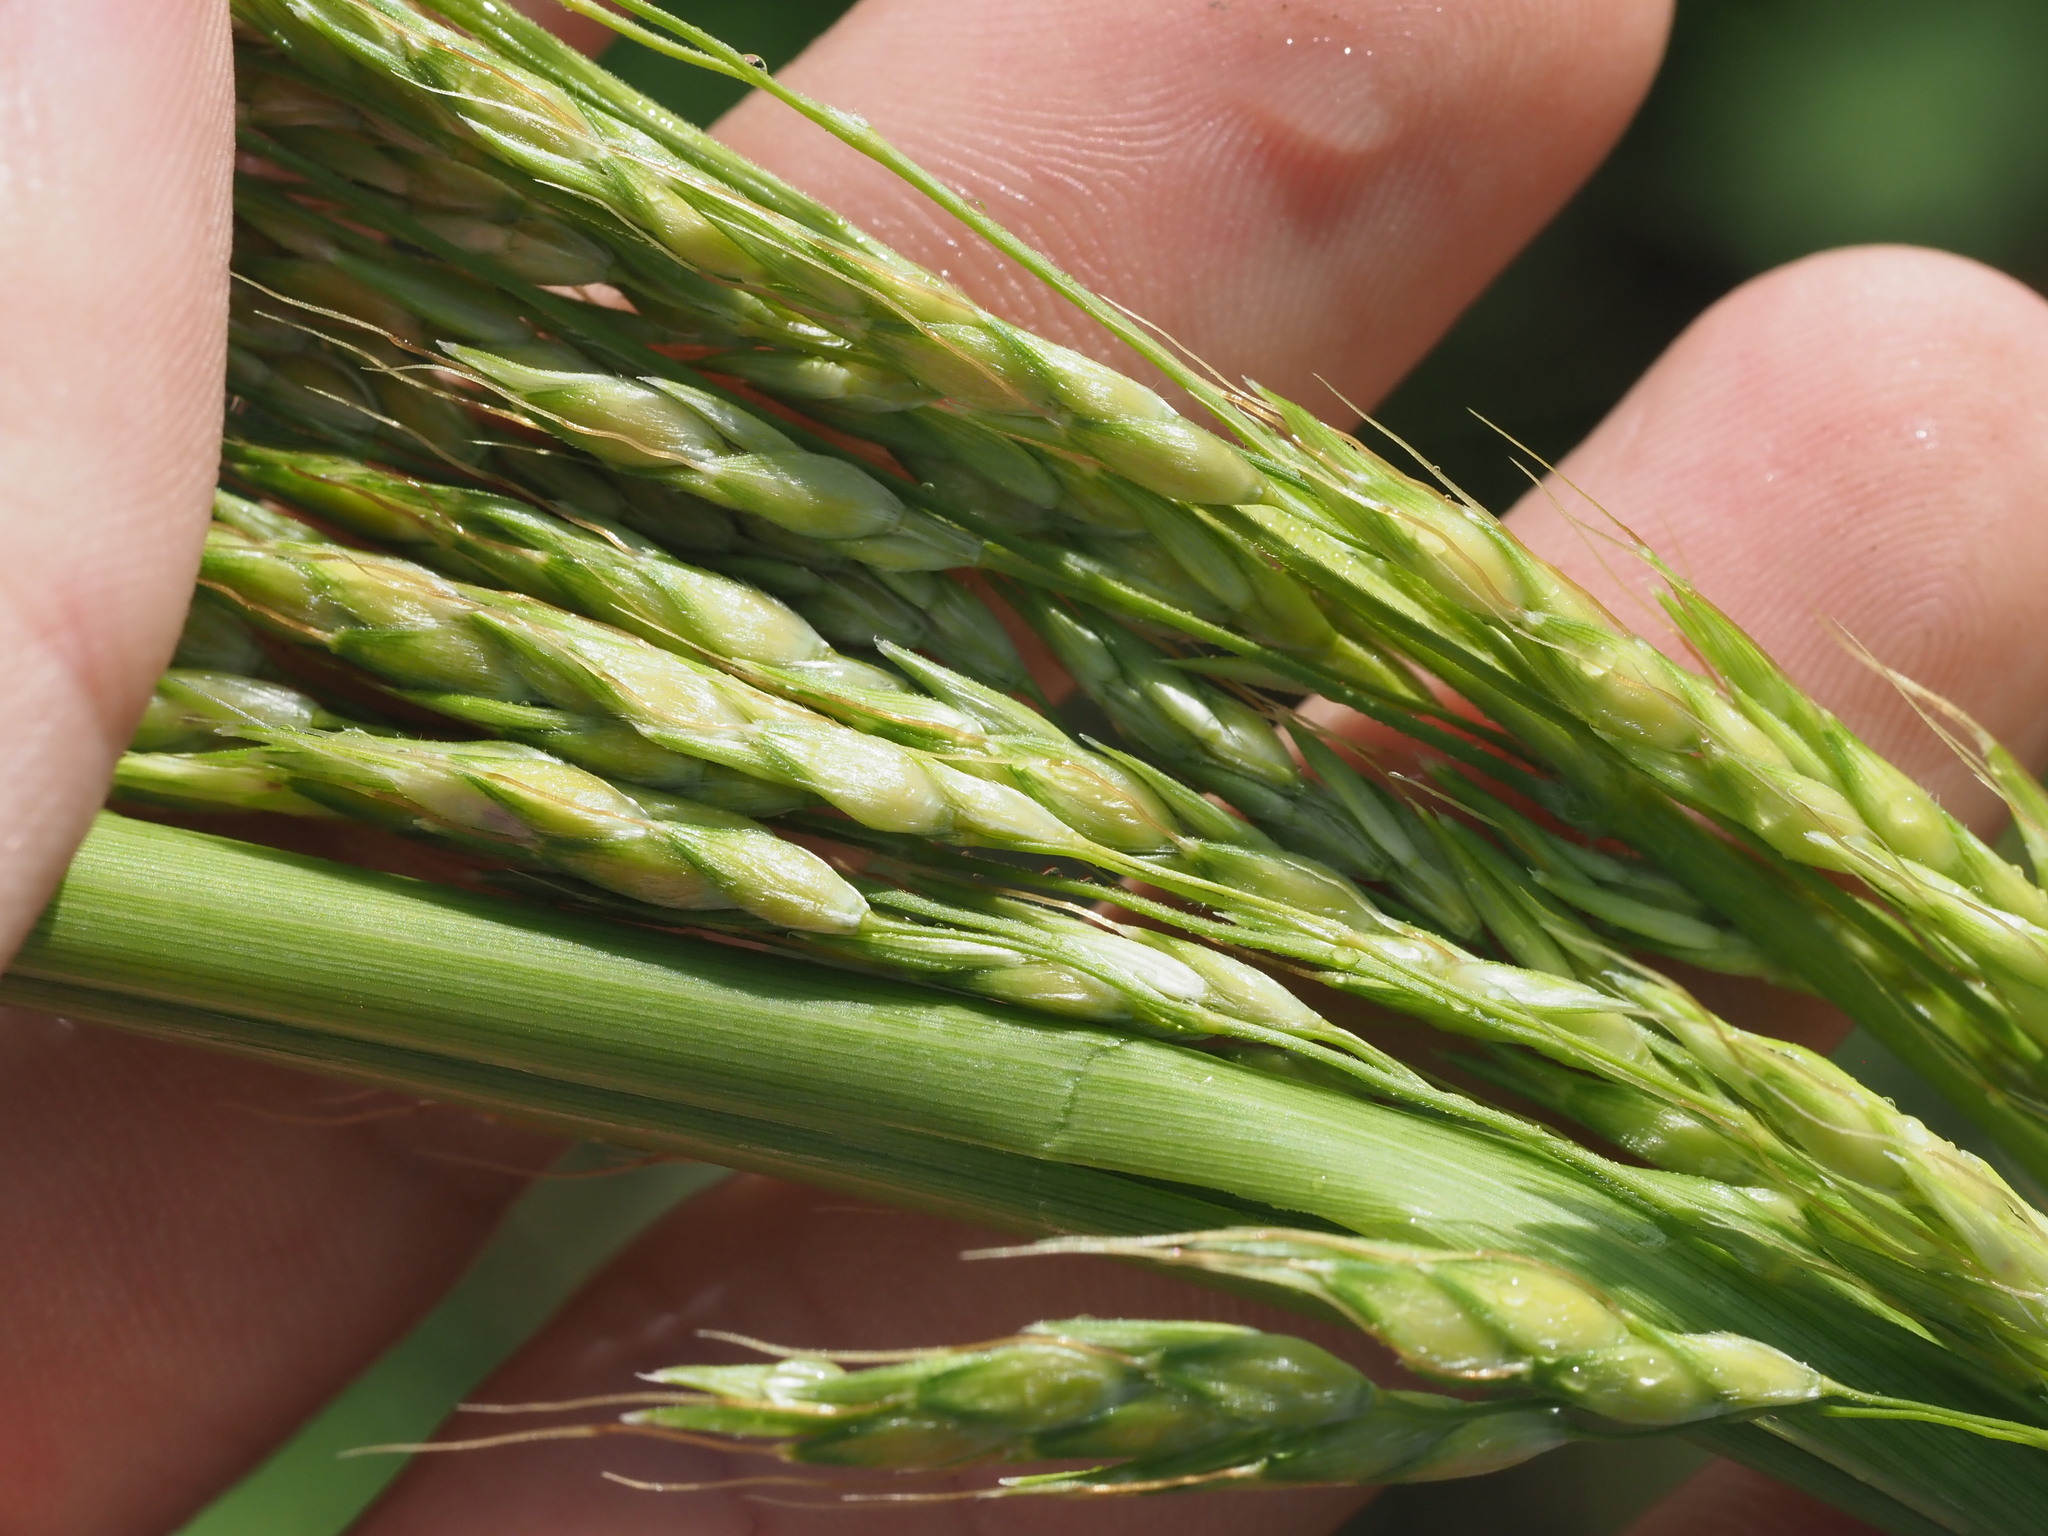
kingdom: Plantae
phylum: Tracheophyta
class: Liliopsida
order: Poales
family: Poaceae
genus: Sorghum
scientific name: Sorghum drummondii
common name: Sudangrass
